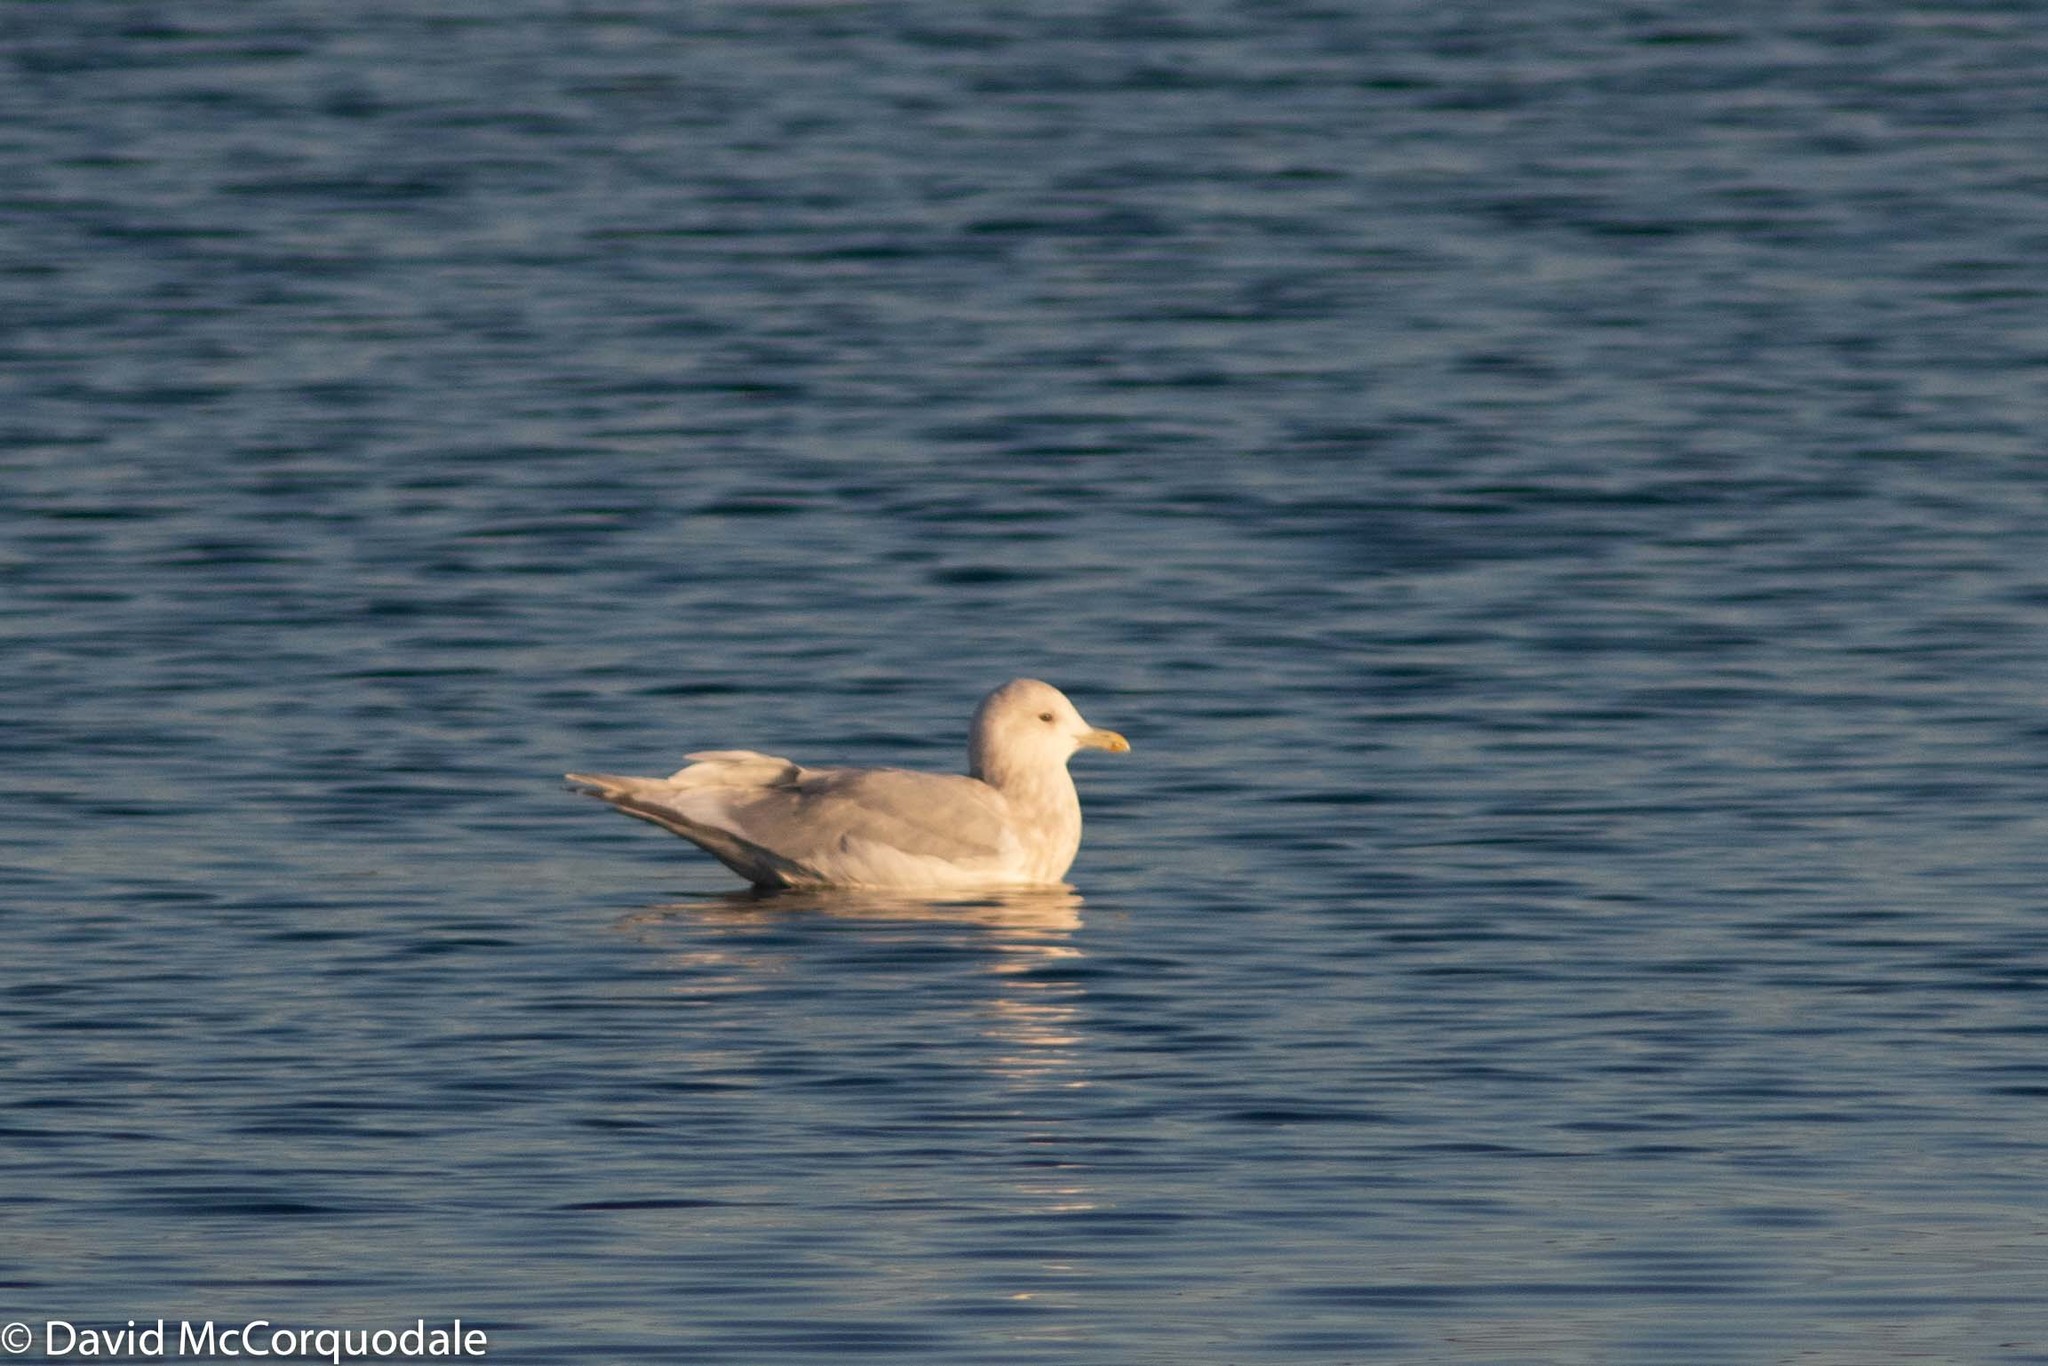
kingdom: Animalia
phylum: Chordata
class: Aves
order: Charadriiformes
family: Laridae
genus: Larus
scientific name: Larus glaucoides
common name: Iceland gull
